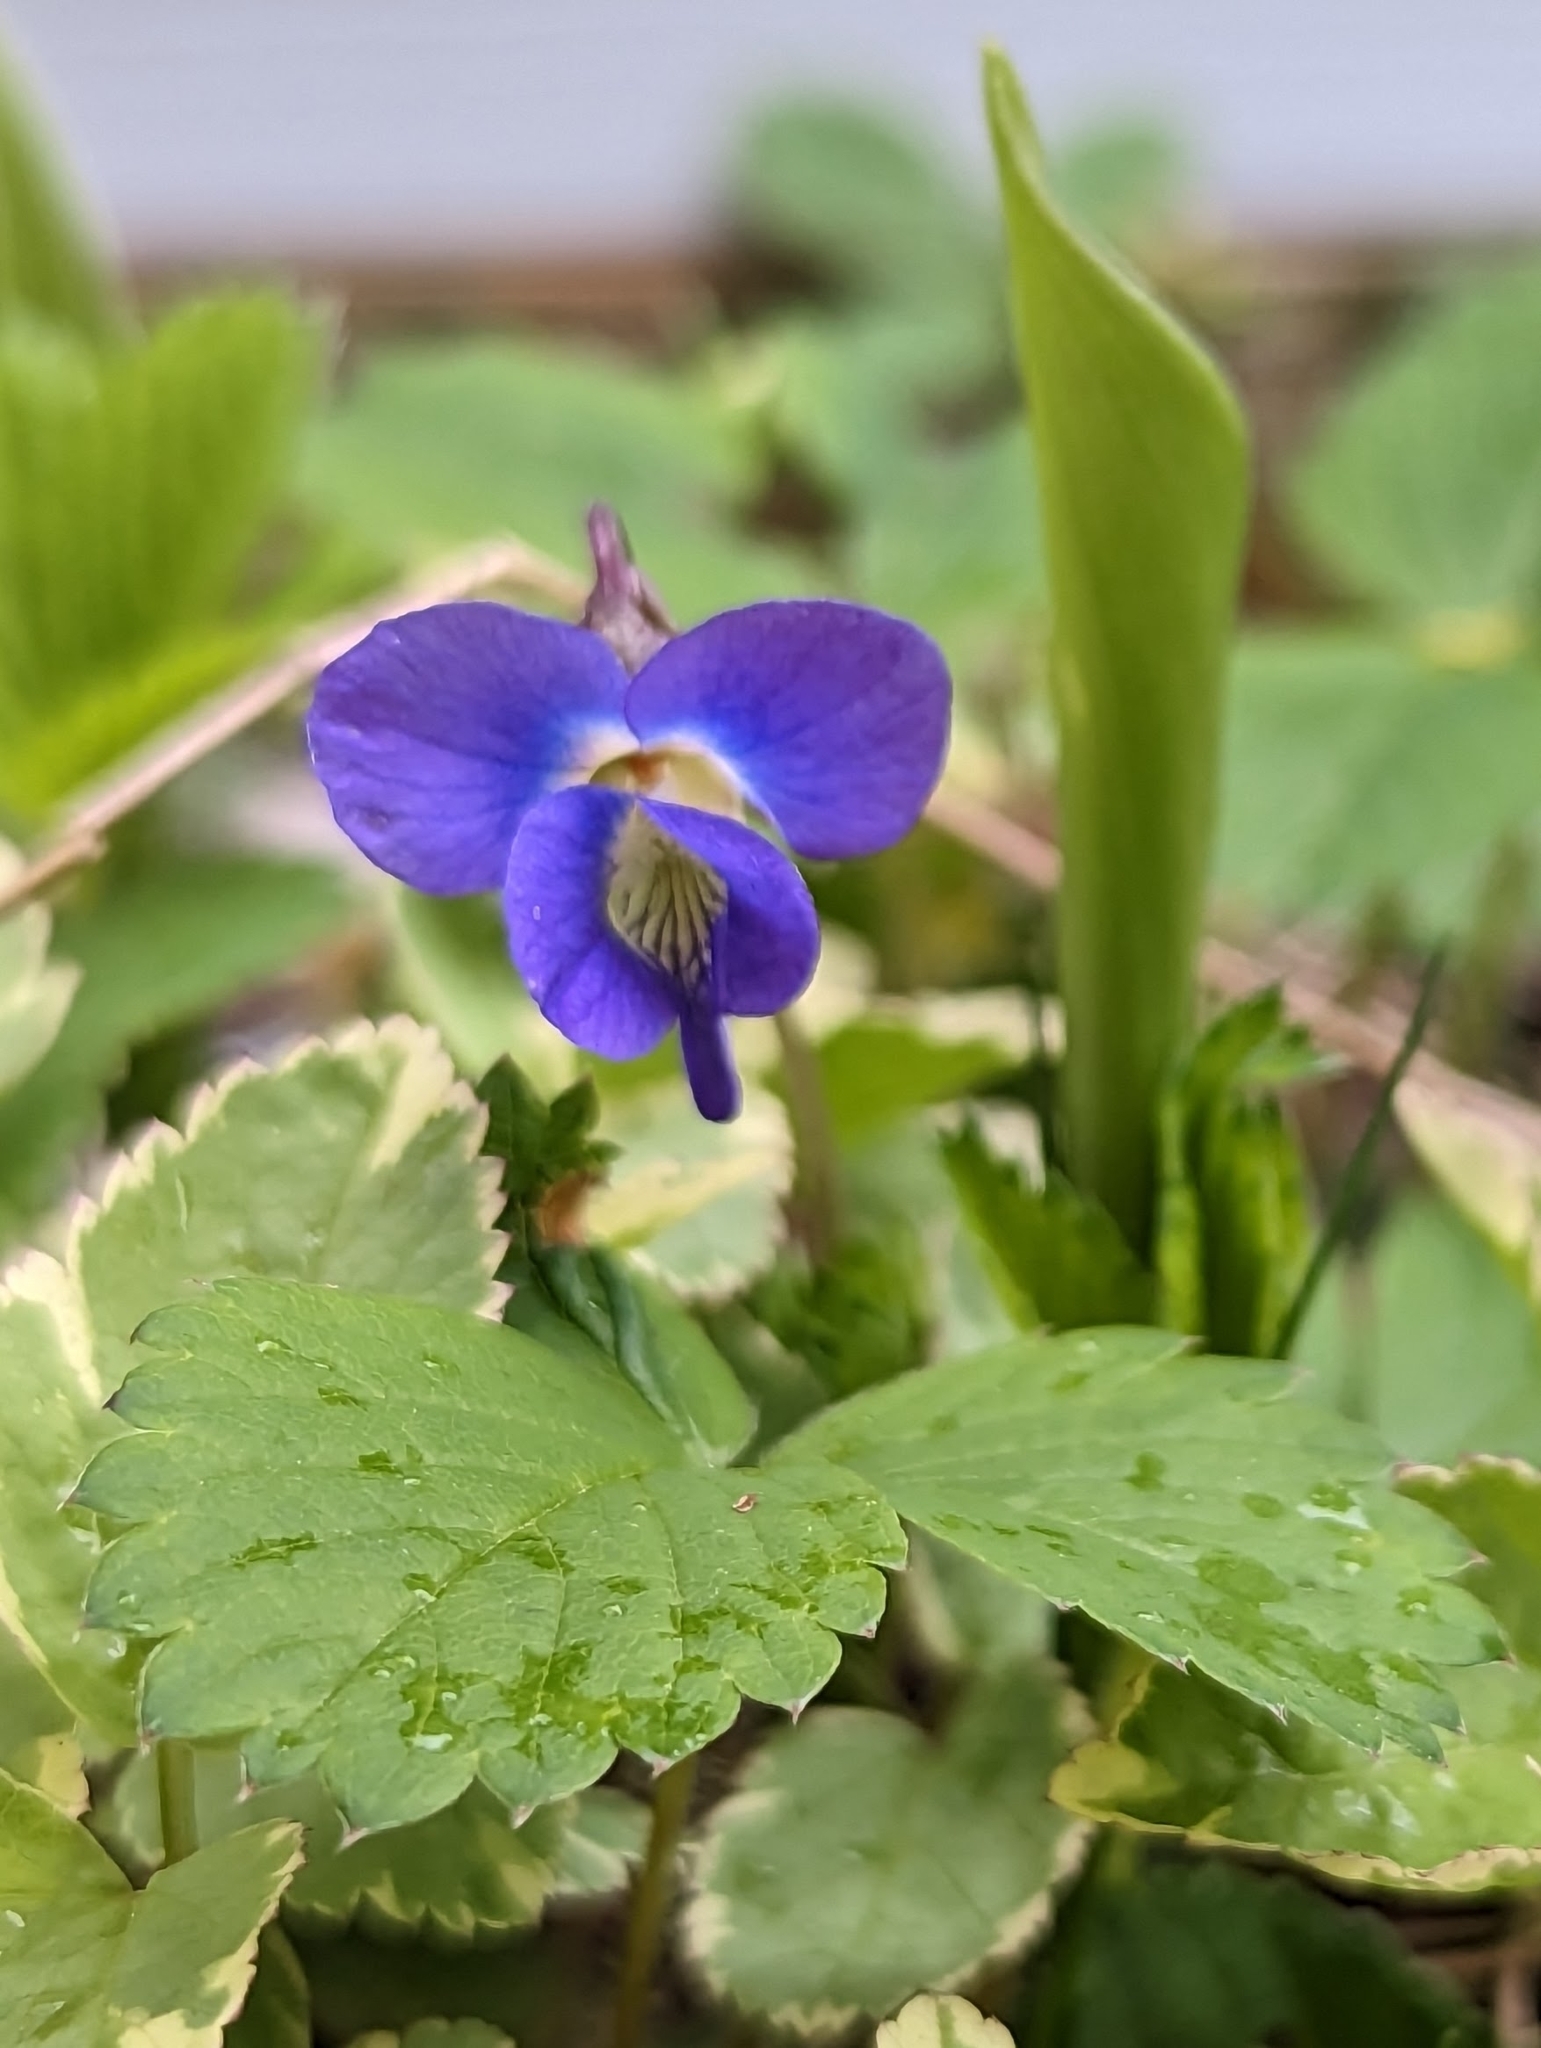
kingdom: Plantae
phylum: Tracheophyta
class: Magnoliopsida
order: Malpighiales
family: Violaceae
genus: Viola
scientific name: Viola sororia
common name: Dooryard violet
